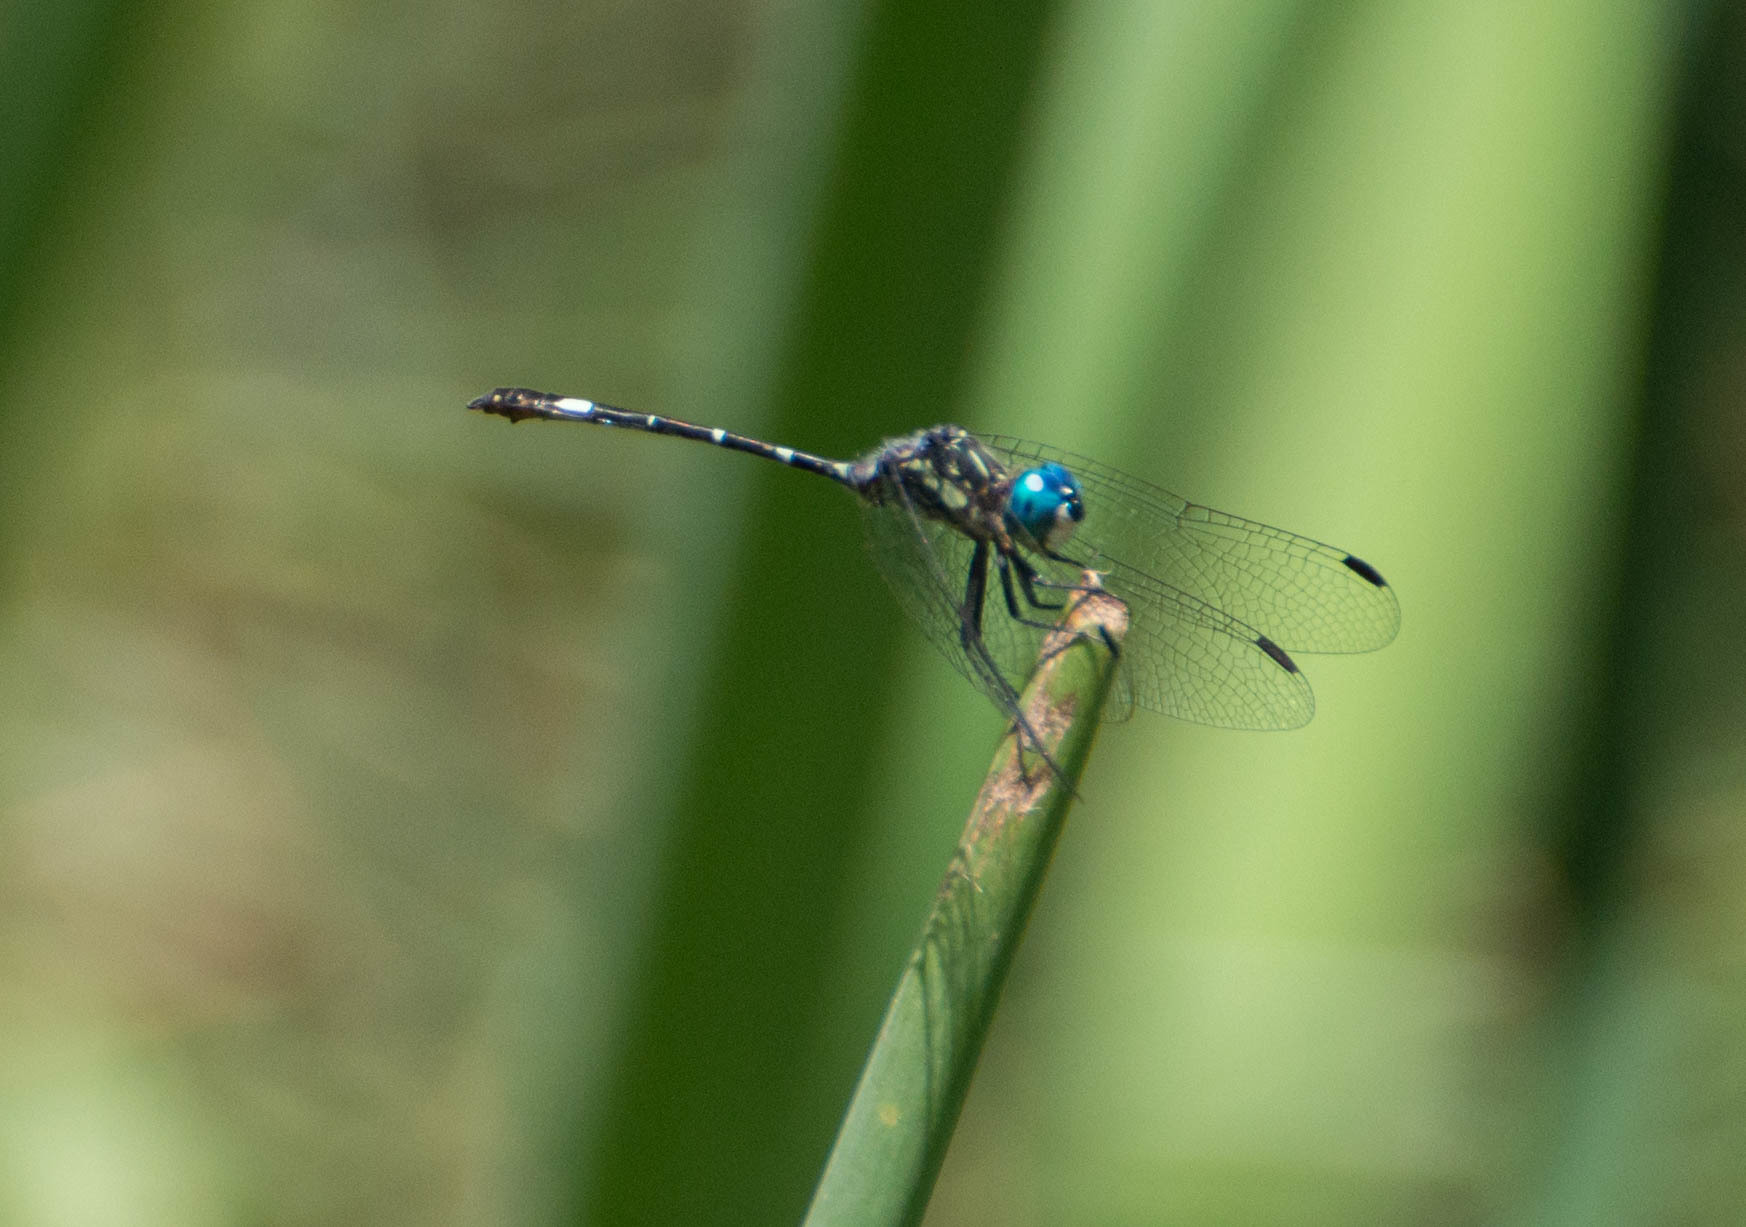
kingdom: Animalia
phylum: Arthropoda
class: Insecta
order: Odonata
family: Libellulidae
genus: Micrathyria
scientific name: Micrathyria hypodidyma
